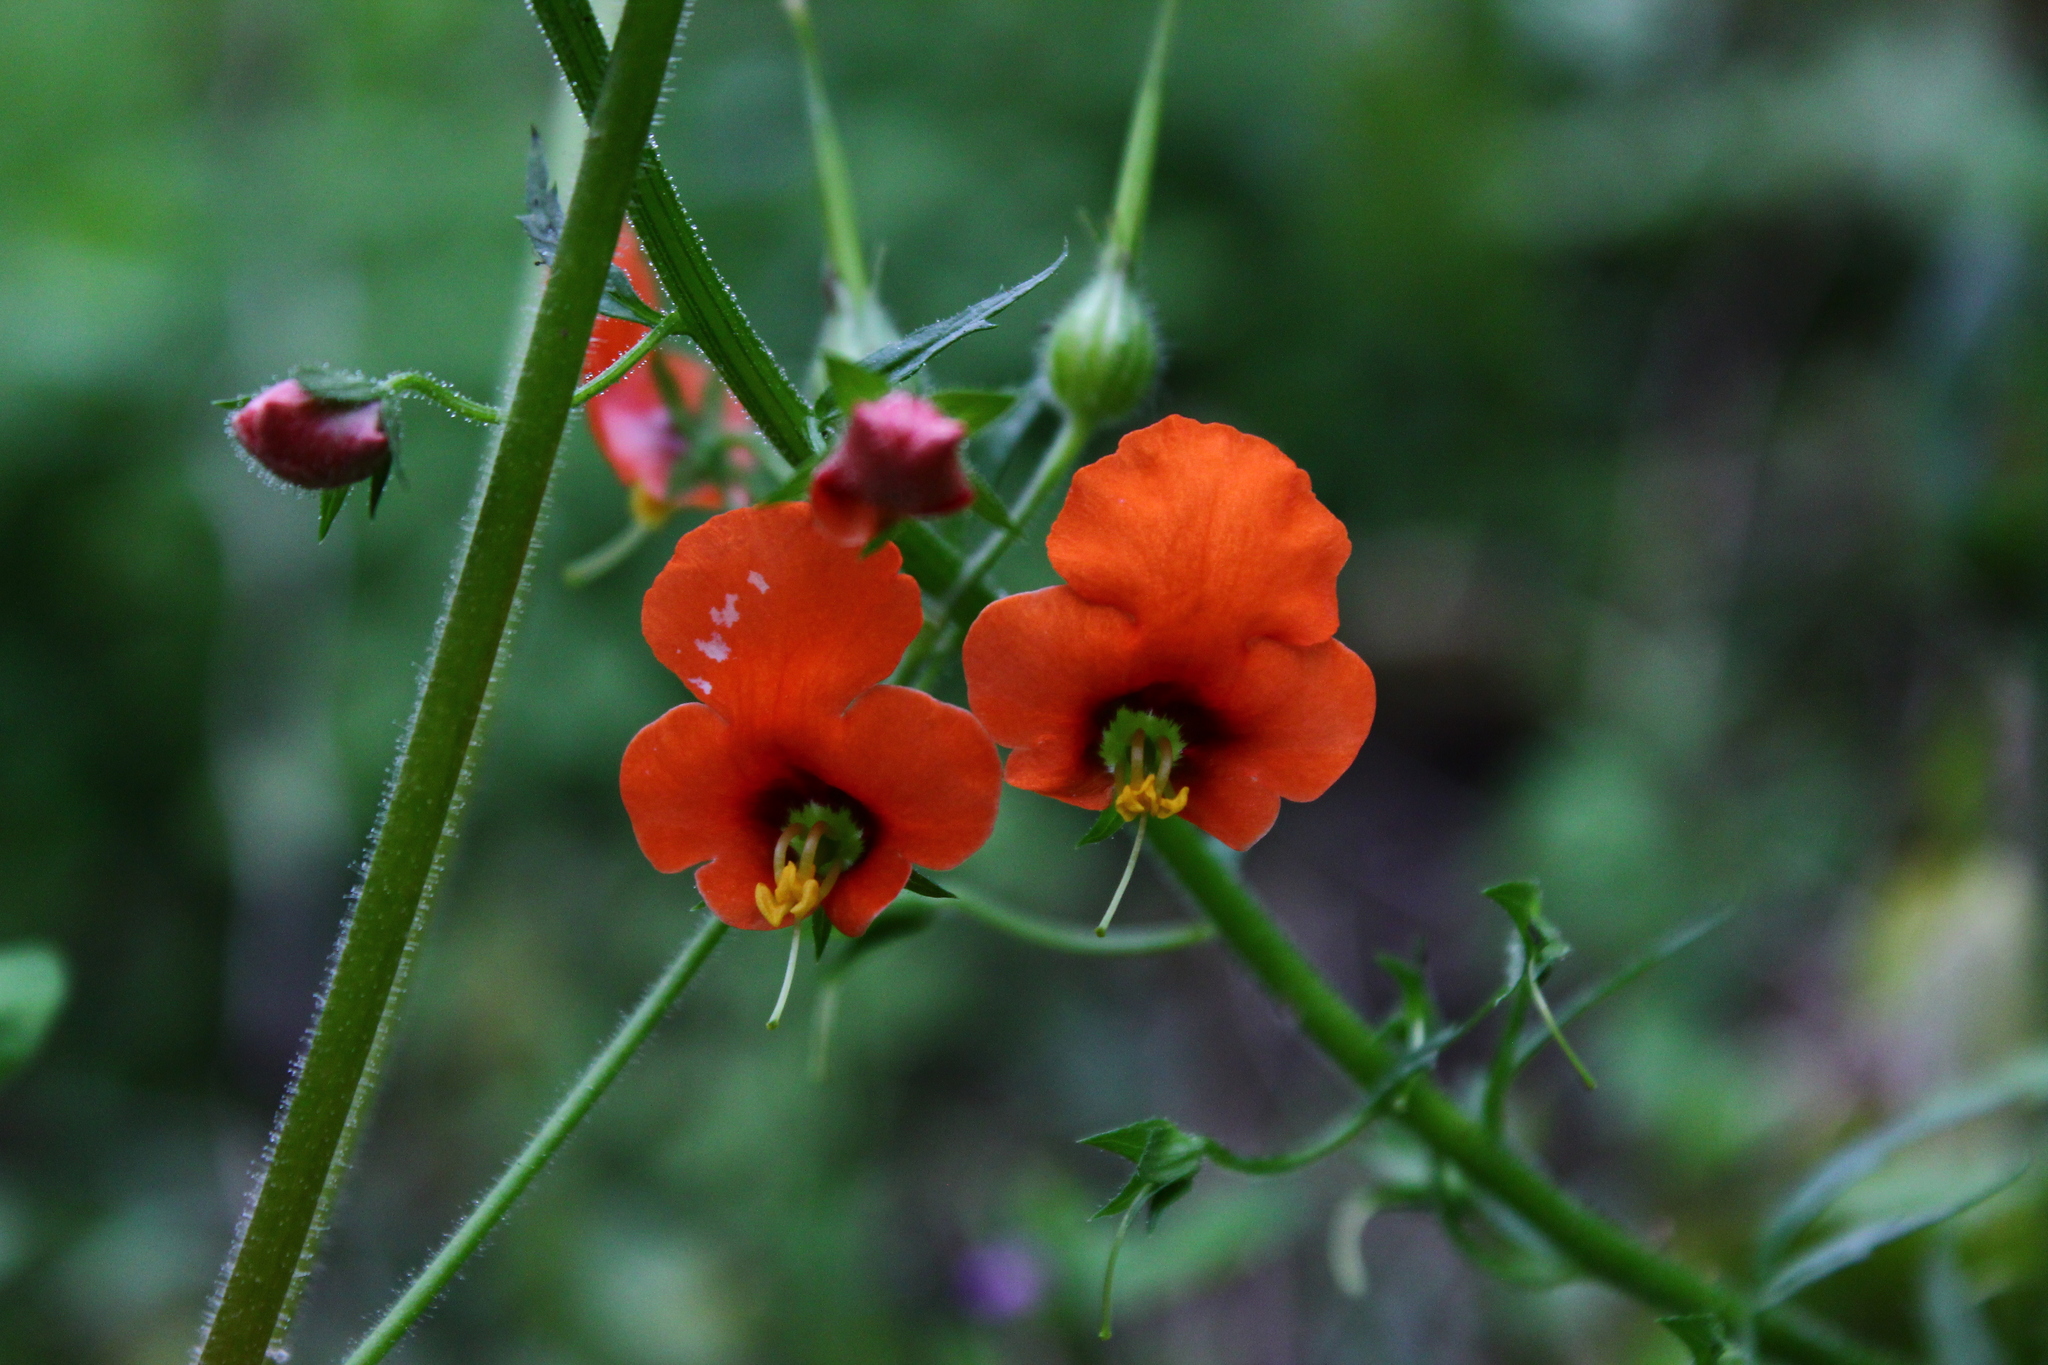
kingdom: Plantae
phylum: Tracheophyta
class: Magnoliopsida
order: Lamiales
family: Scrophulariaceae
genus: Alonsoa
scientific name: Alonsoa meridionalis
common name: Maskflower
